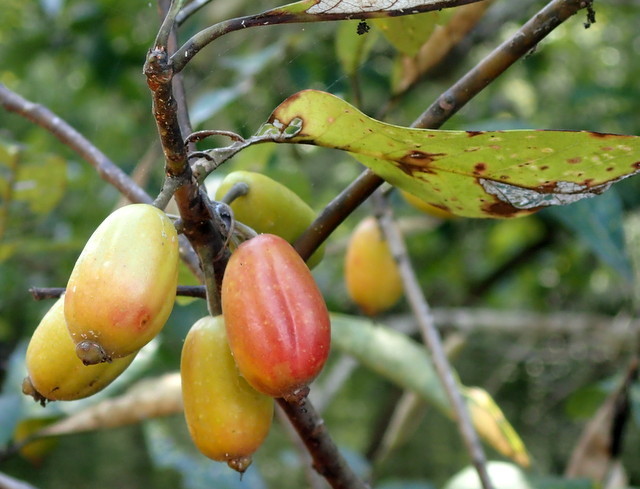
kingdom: Plantae
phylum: Tracheophyta
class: Magnoliopsida
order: Cornales
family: Nyssaceae
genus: Nyssa
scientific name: Nyssa ogeche
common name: Ogeechee tupelo
